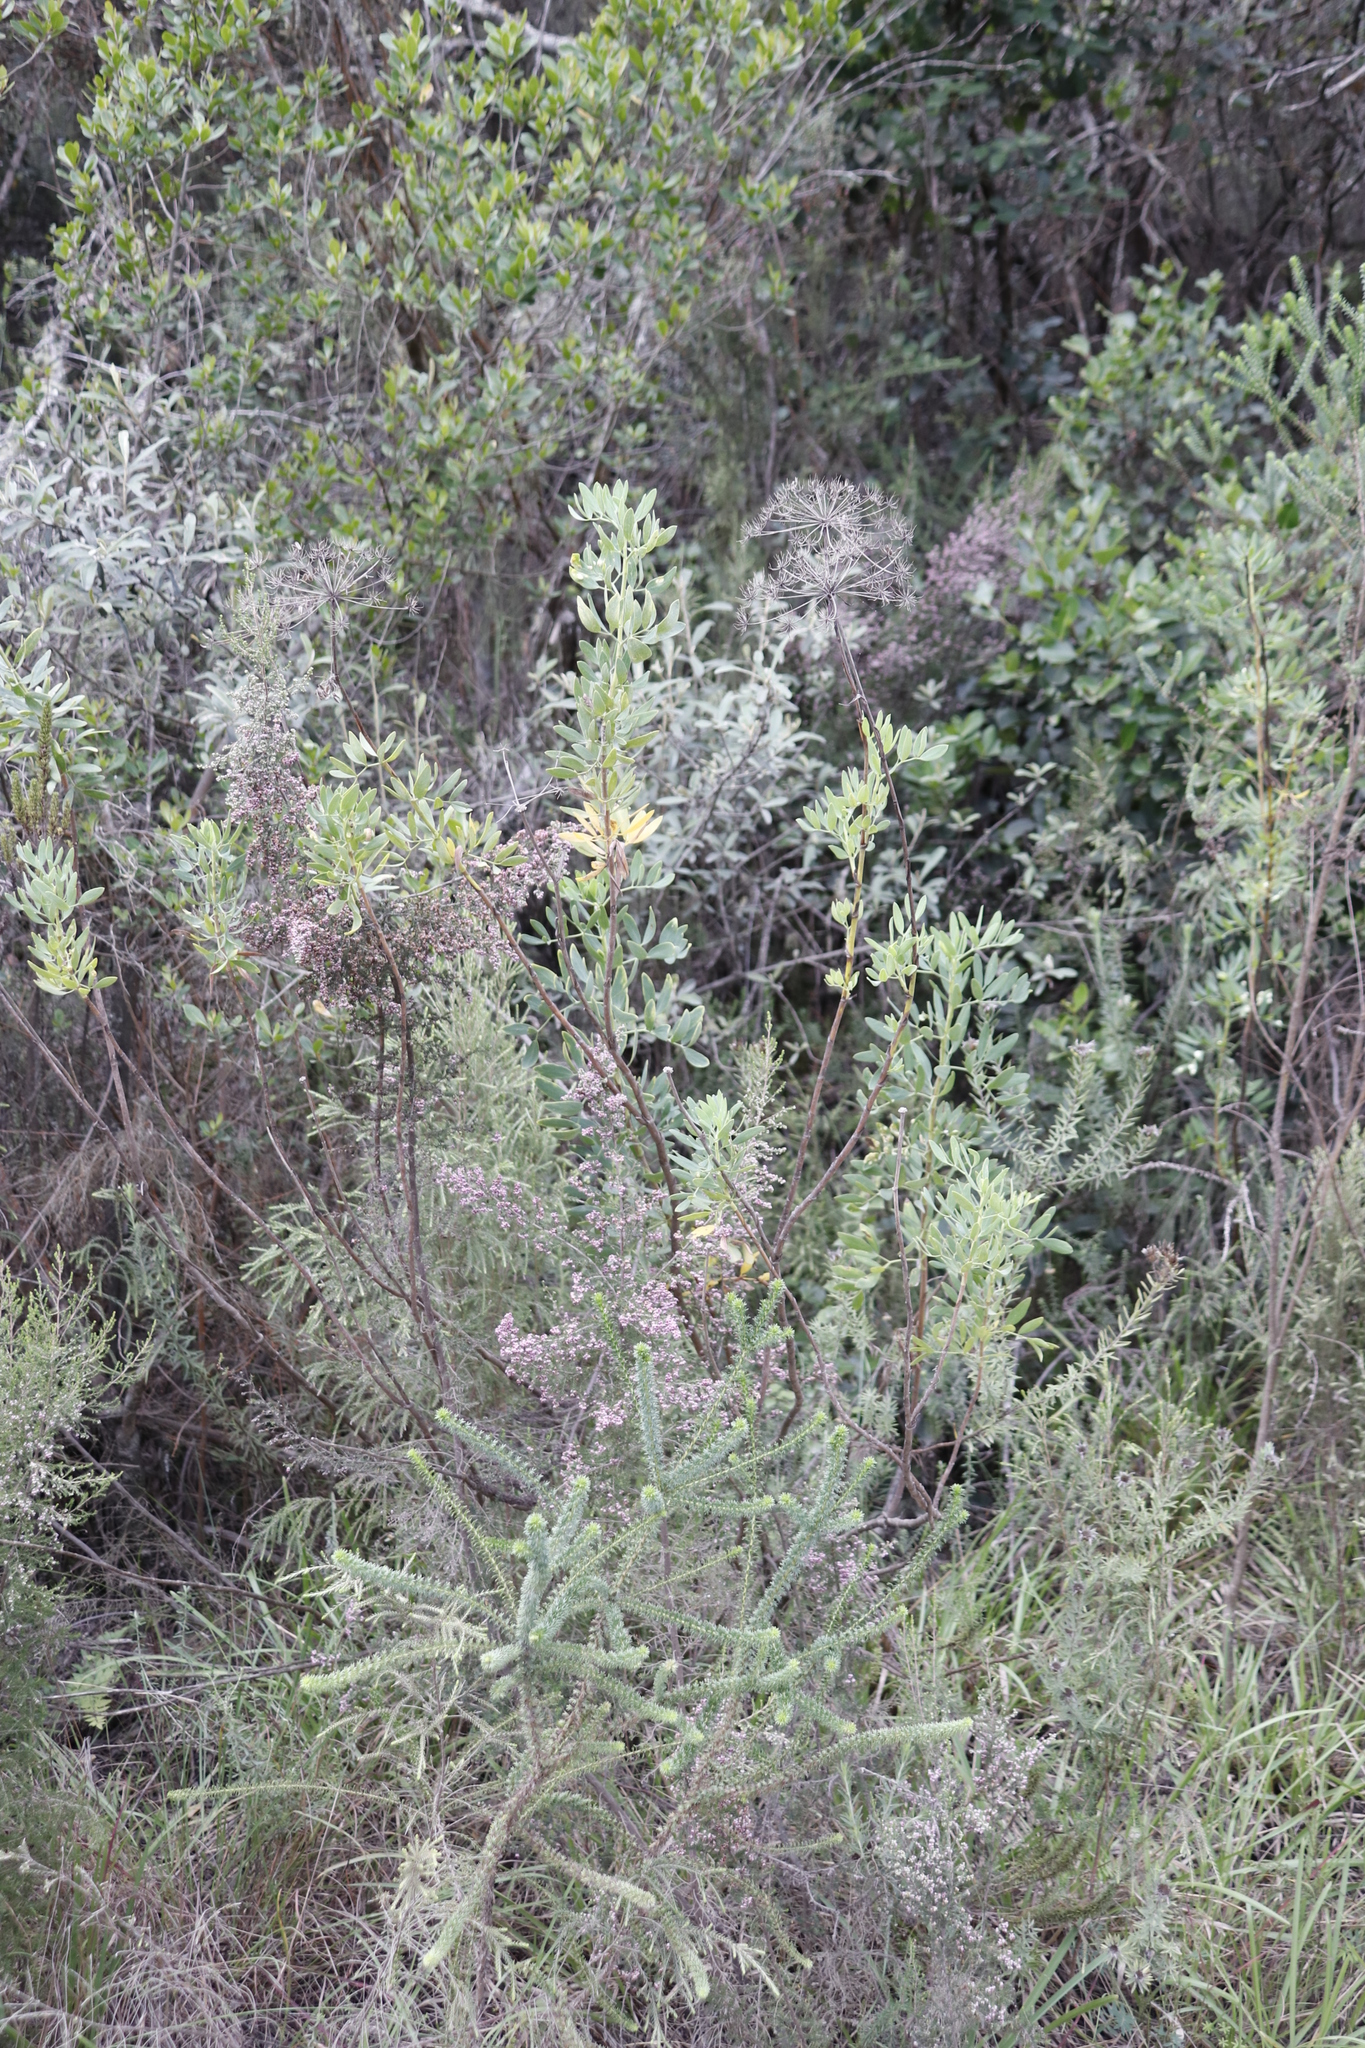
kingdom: Plantae
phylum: Tracheophyta
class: Magnoliopsida
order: Apiales
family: Apiaceae
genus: Notobubon
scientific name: Notobubon laevigatum
